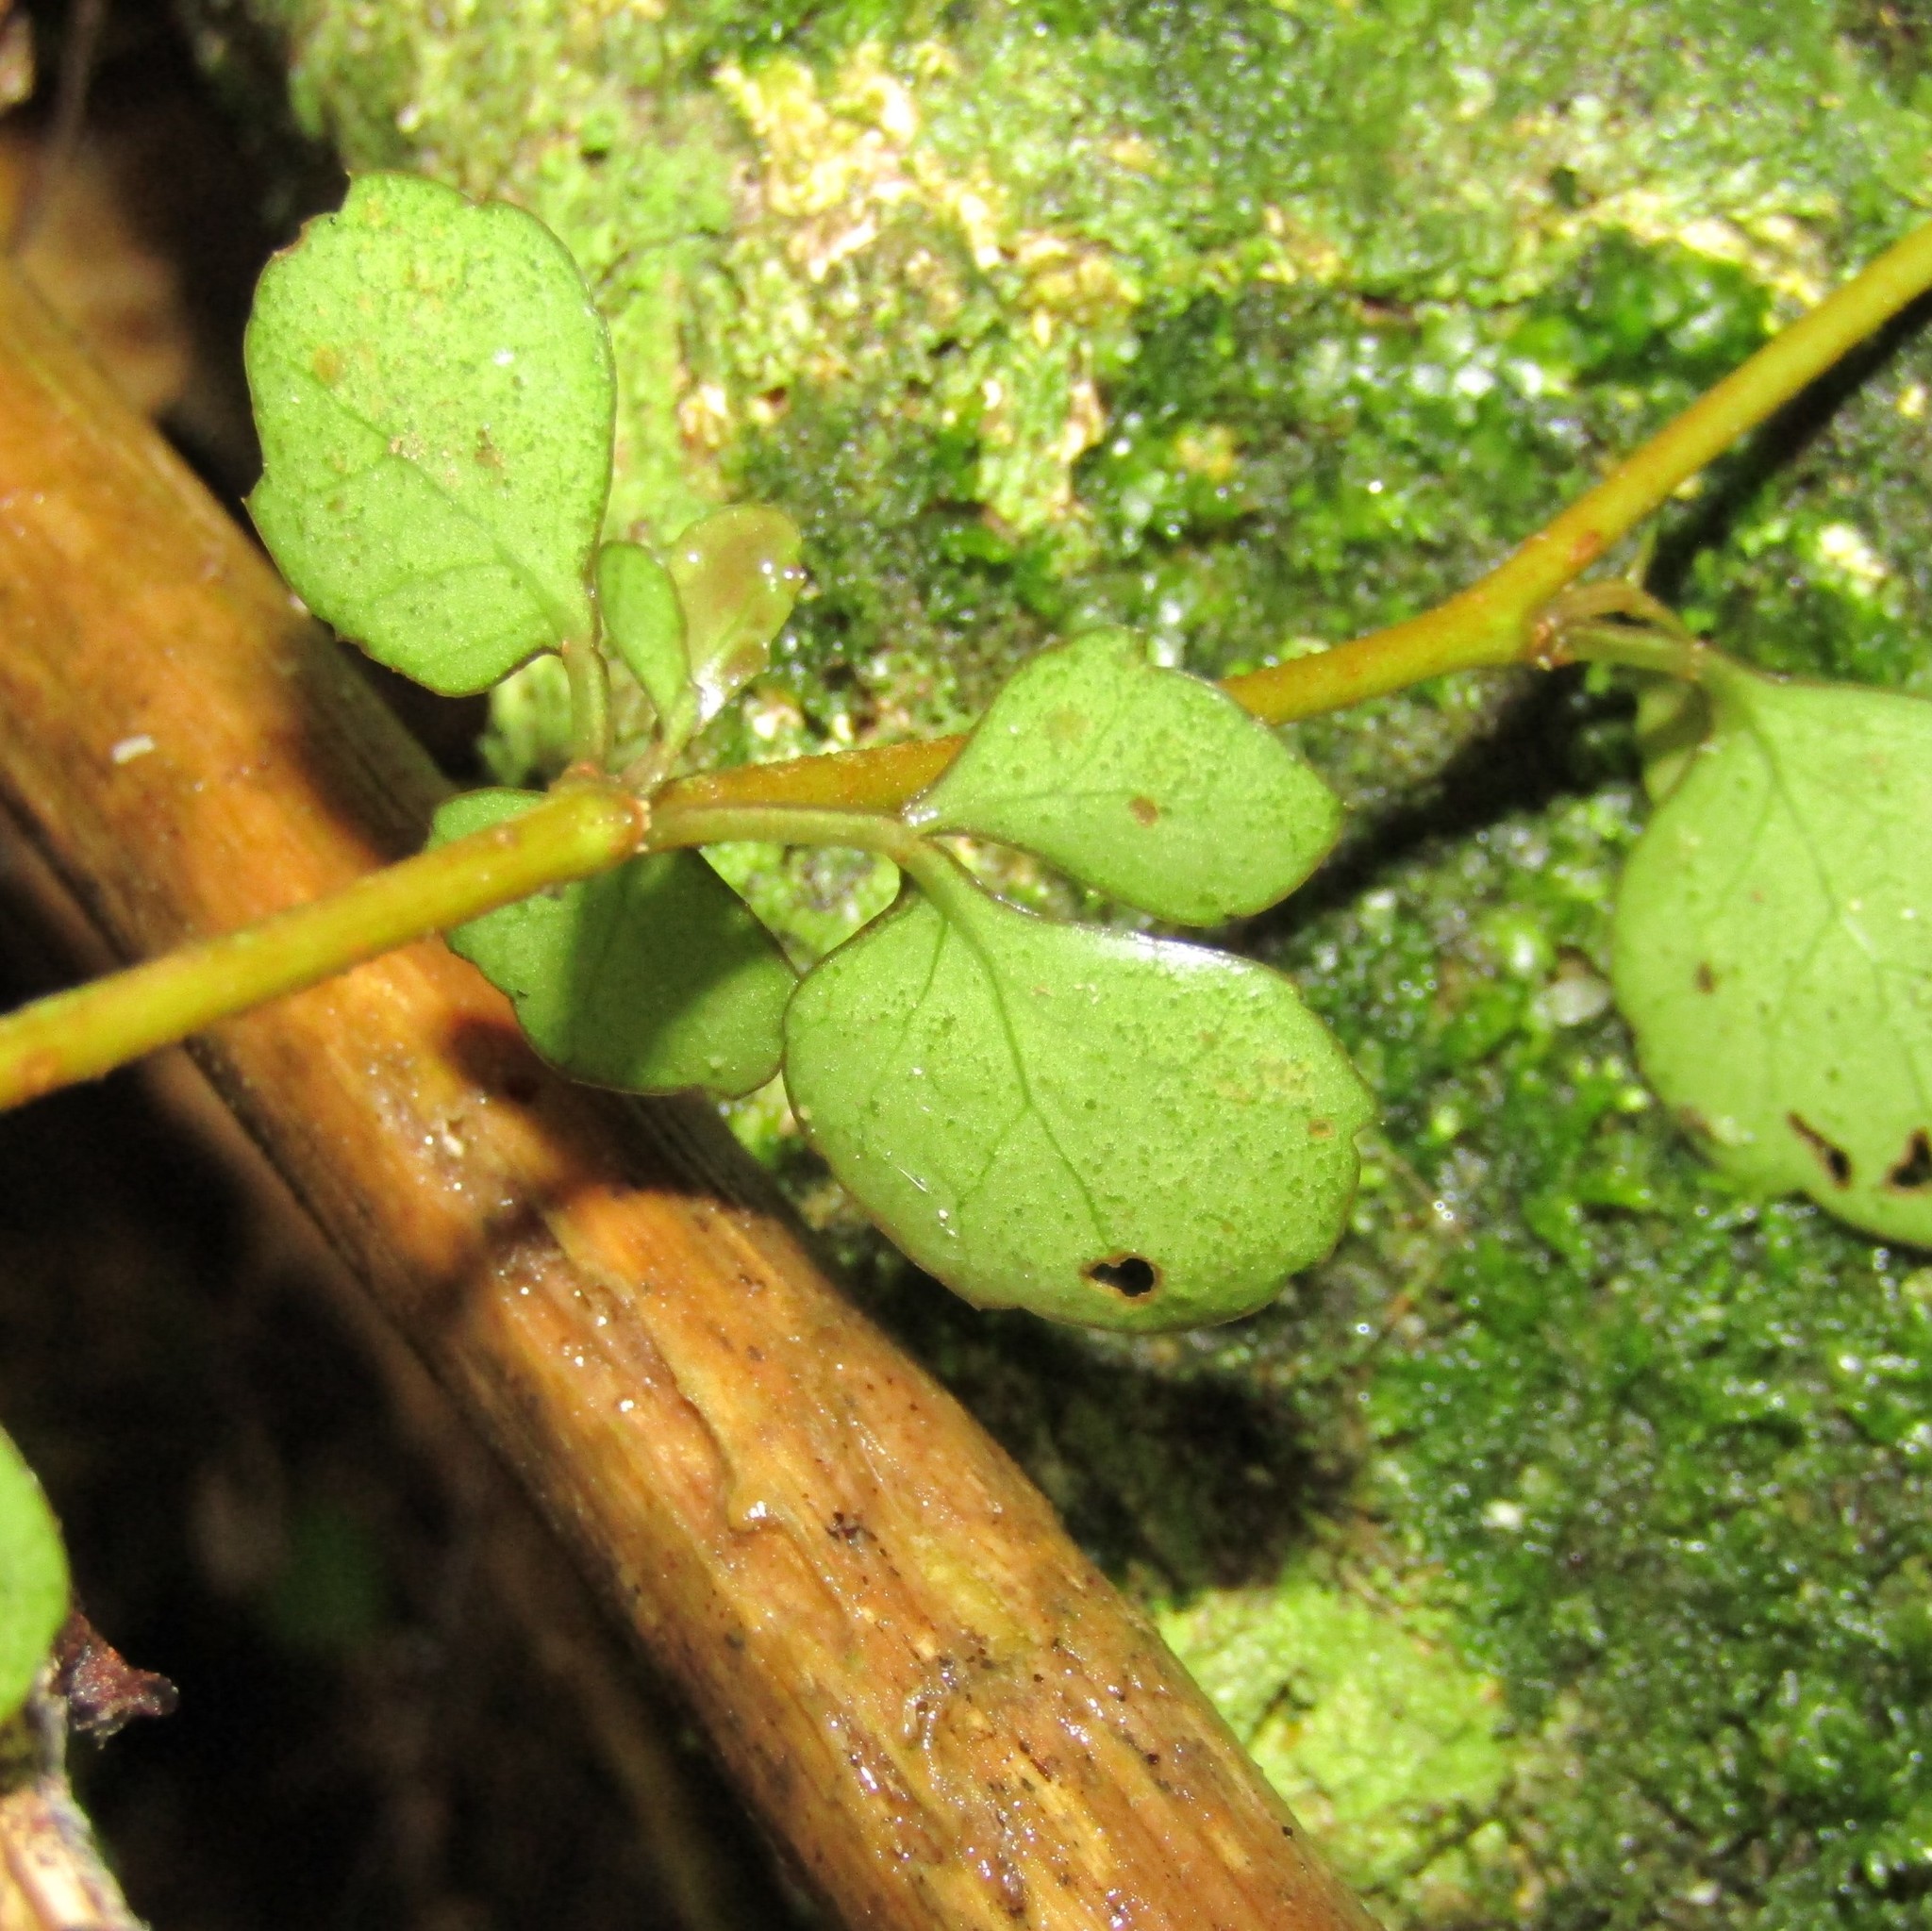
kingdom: Plantae
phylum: Tracheophyta
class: Magnoliopsida
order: Apiales
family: Araliaceae
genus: Raukaua
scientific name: Raukaua anomalus
